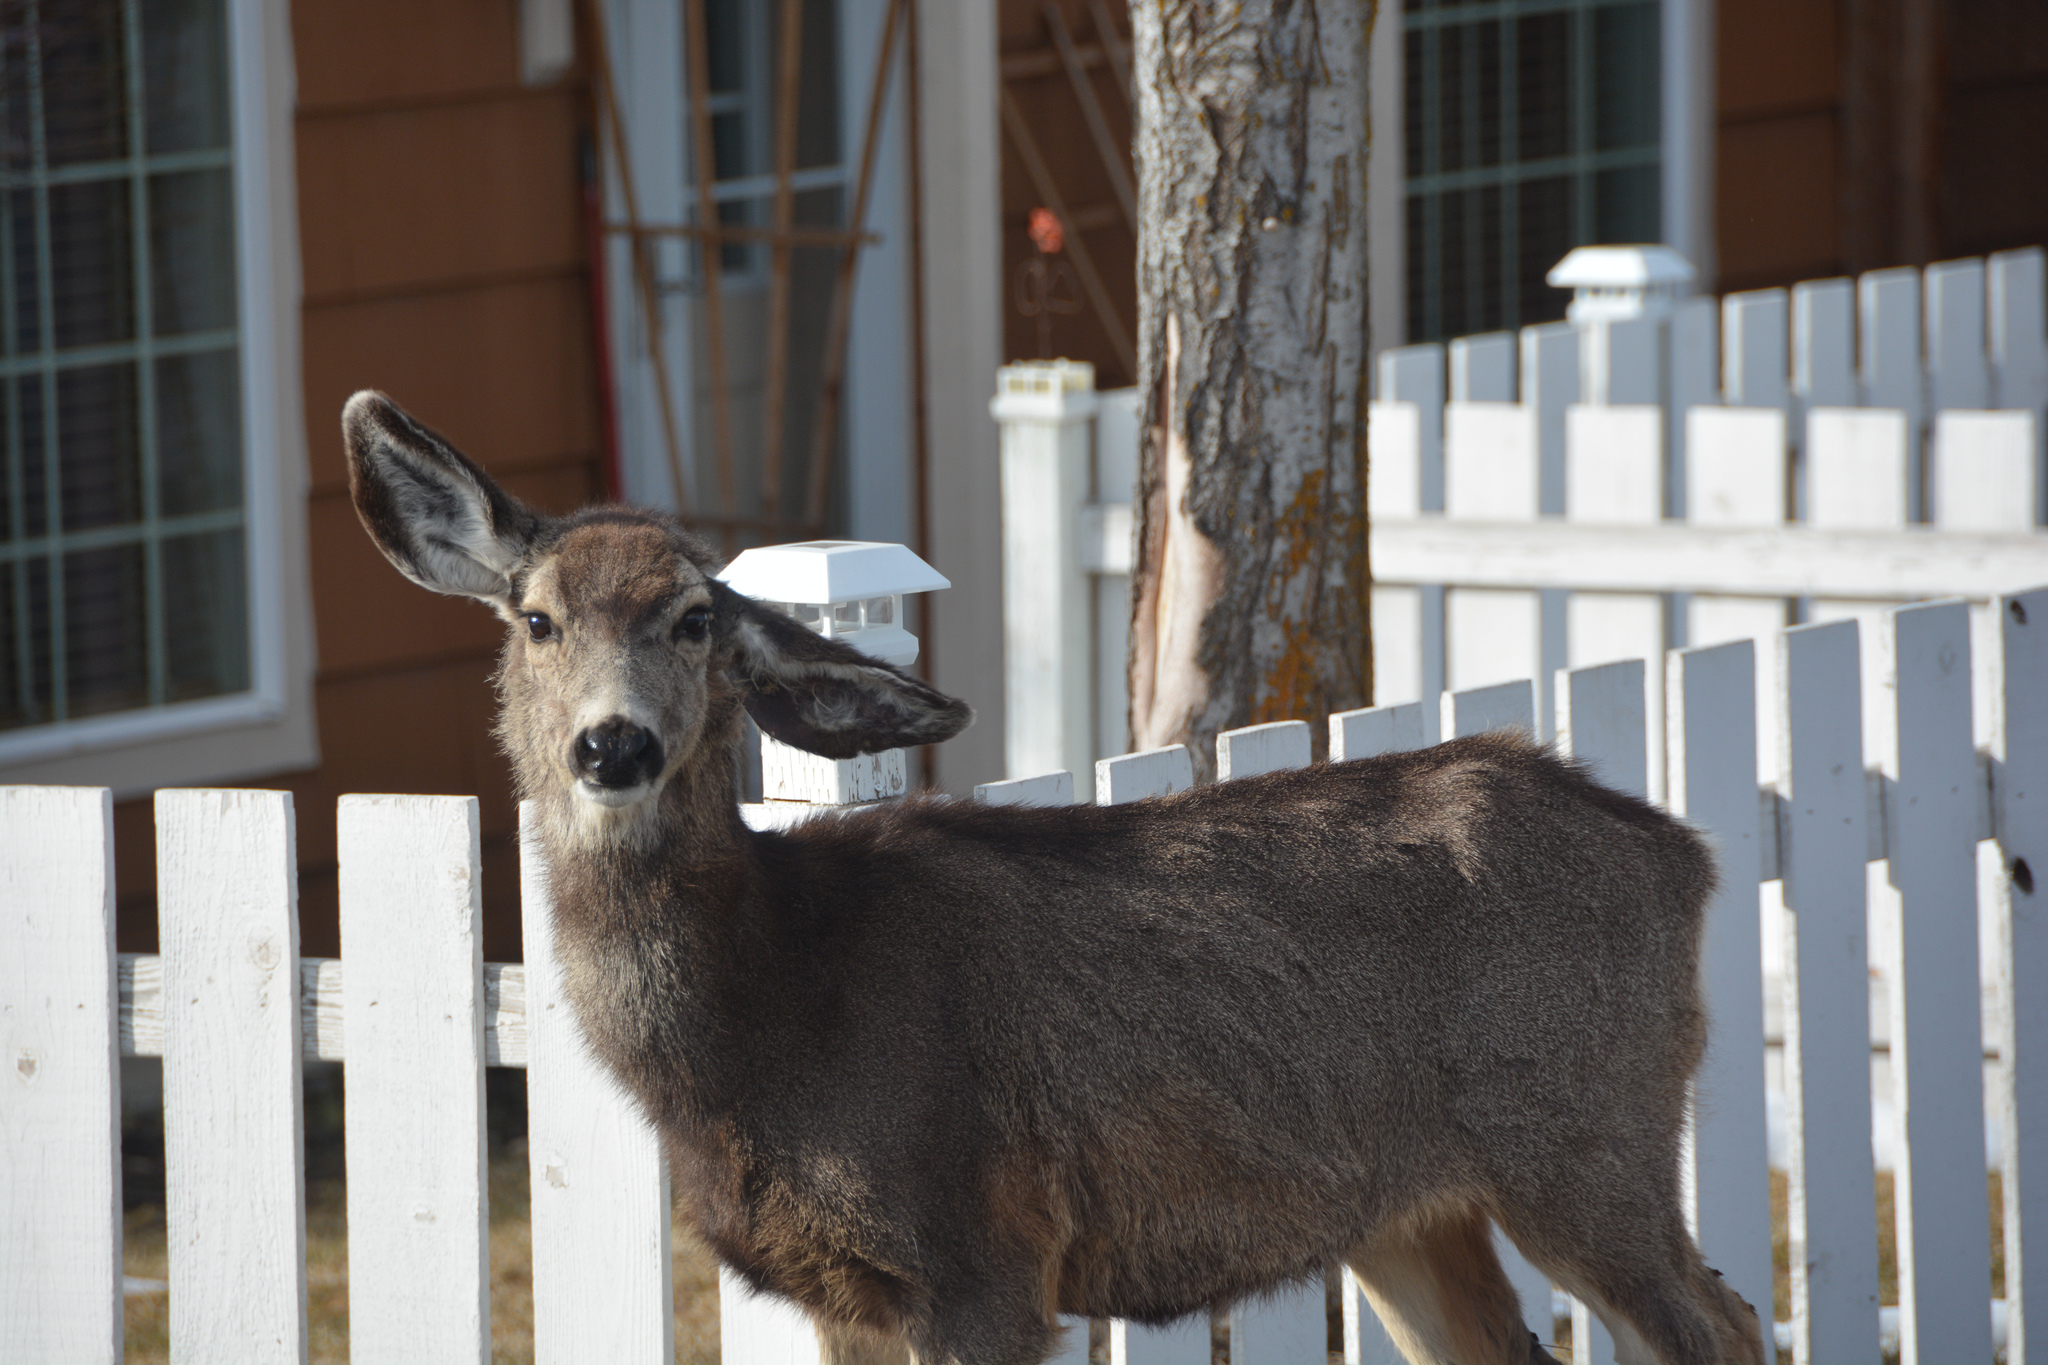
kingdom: Animalia
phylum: Chordata
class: Mammalia
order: Artiodactyla
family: Cervidae
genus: Odocoileus
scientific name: Odocoileus hemionus
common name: Mule deer
